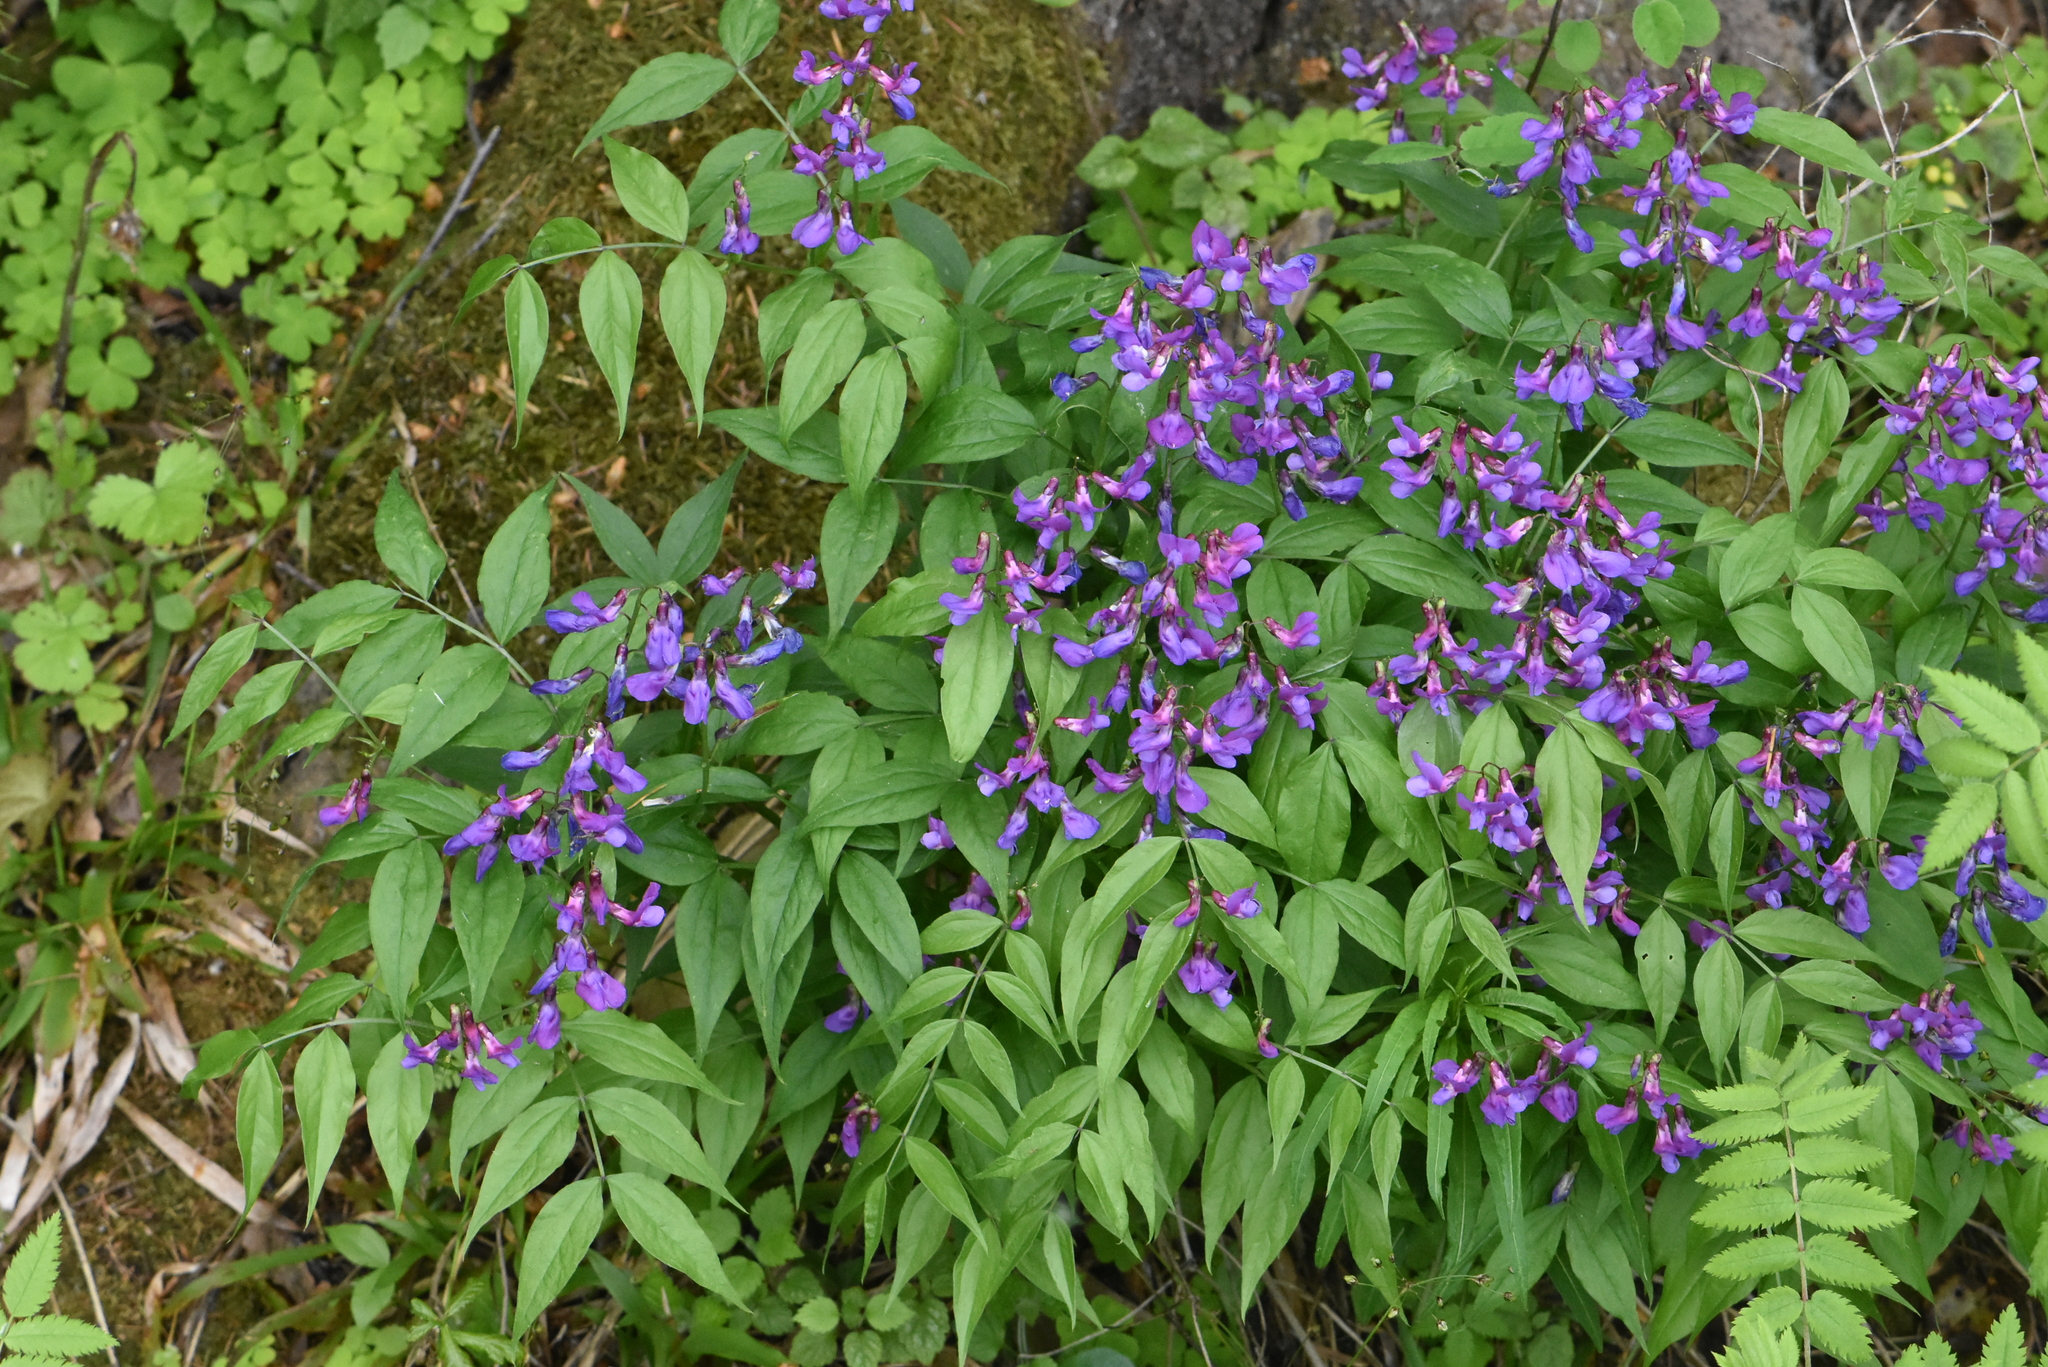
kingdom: Plantae
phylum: Tracheophyta
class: Magnoliopsida
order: Fabales
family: Fabaceae
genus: Lathyrus
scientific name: Lathyrus vernus
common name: Spring pea
